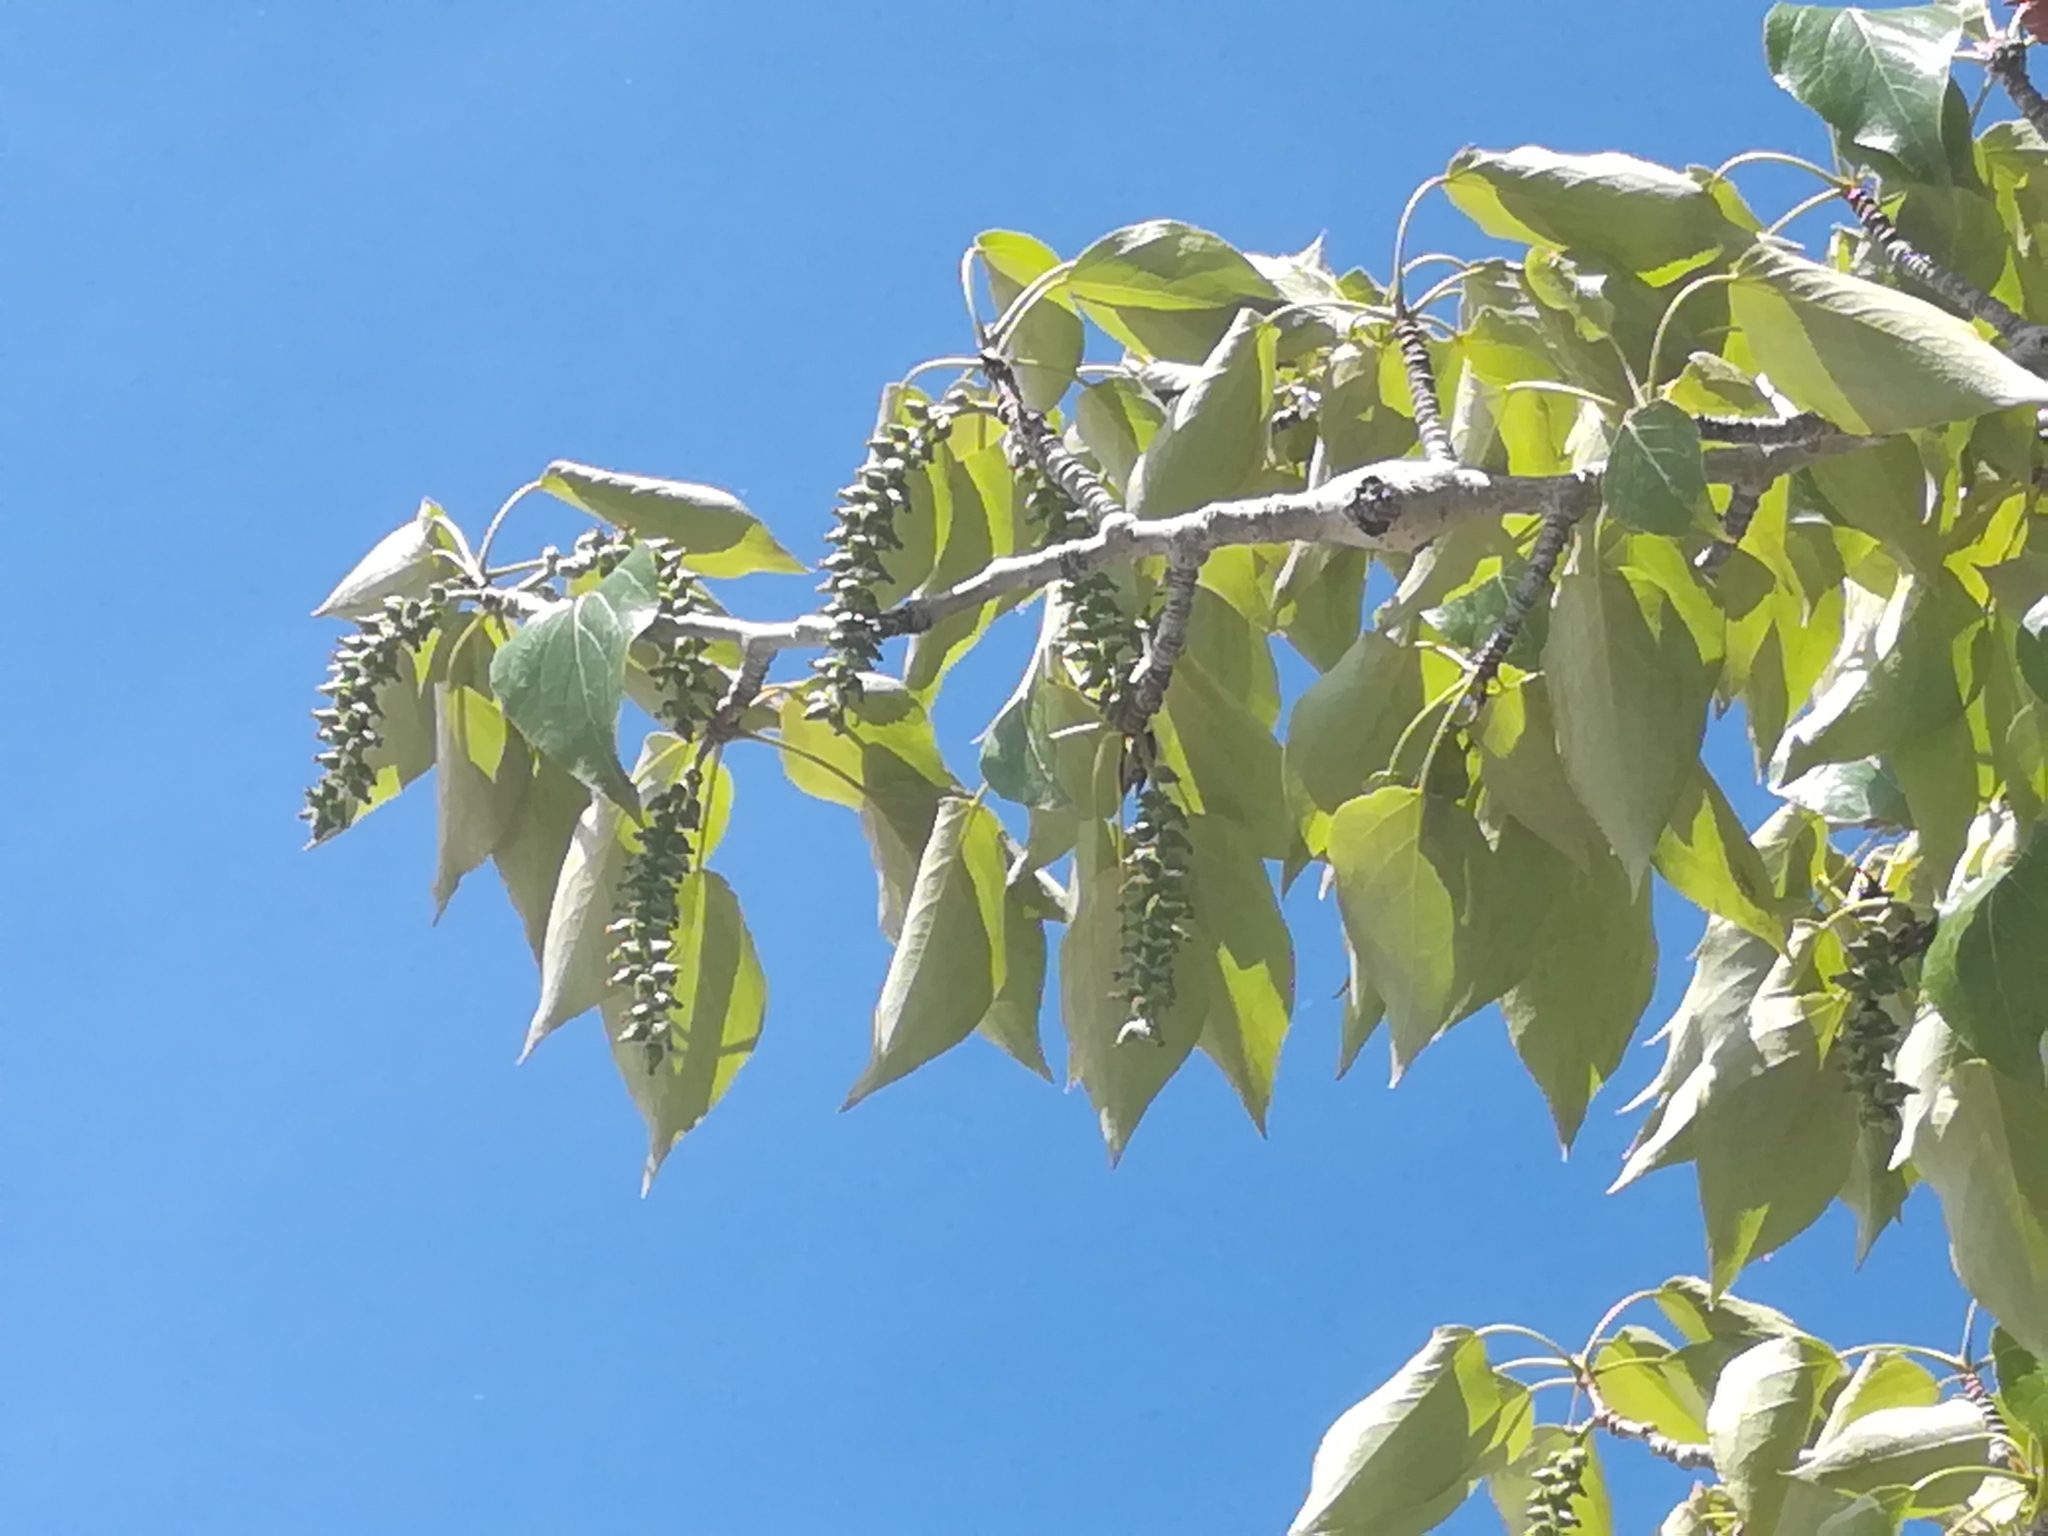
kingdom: Plantae
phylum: Tracheophyta
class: Magnoliopsida
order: Malpighiales
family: Salicaceae
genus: Populus
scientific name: Populus balsamifera
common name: Balsam poplar
